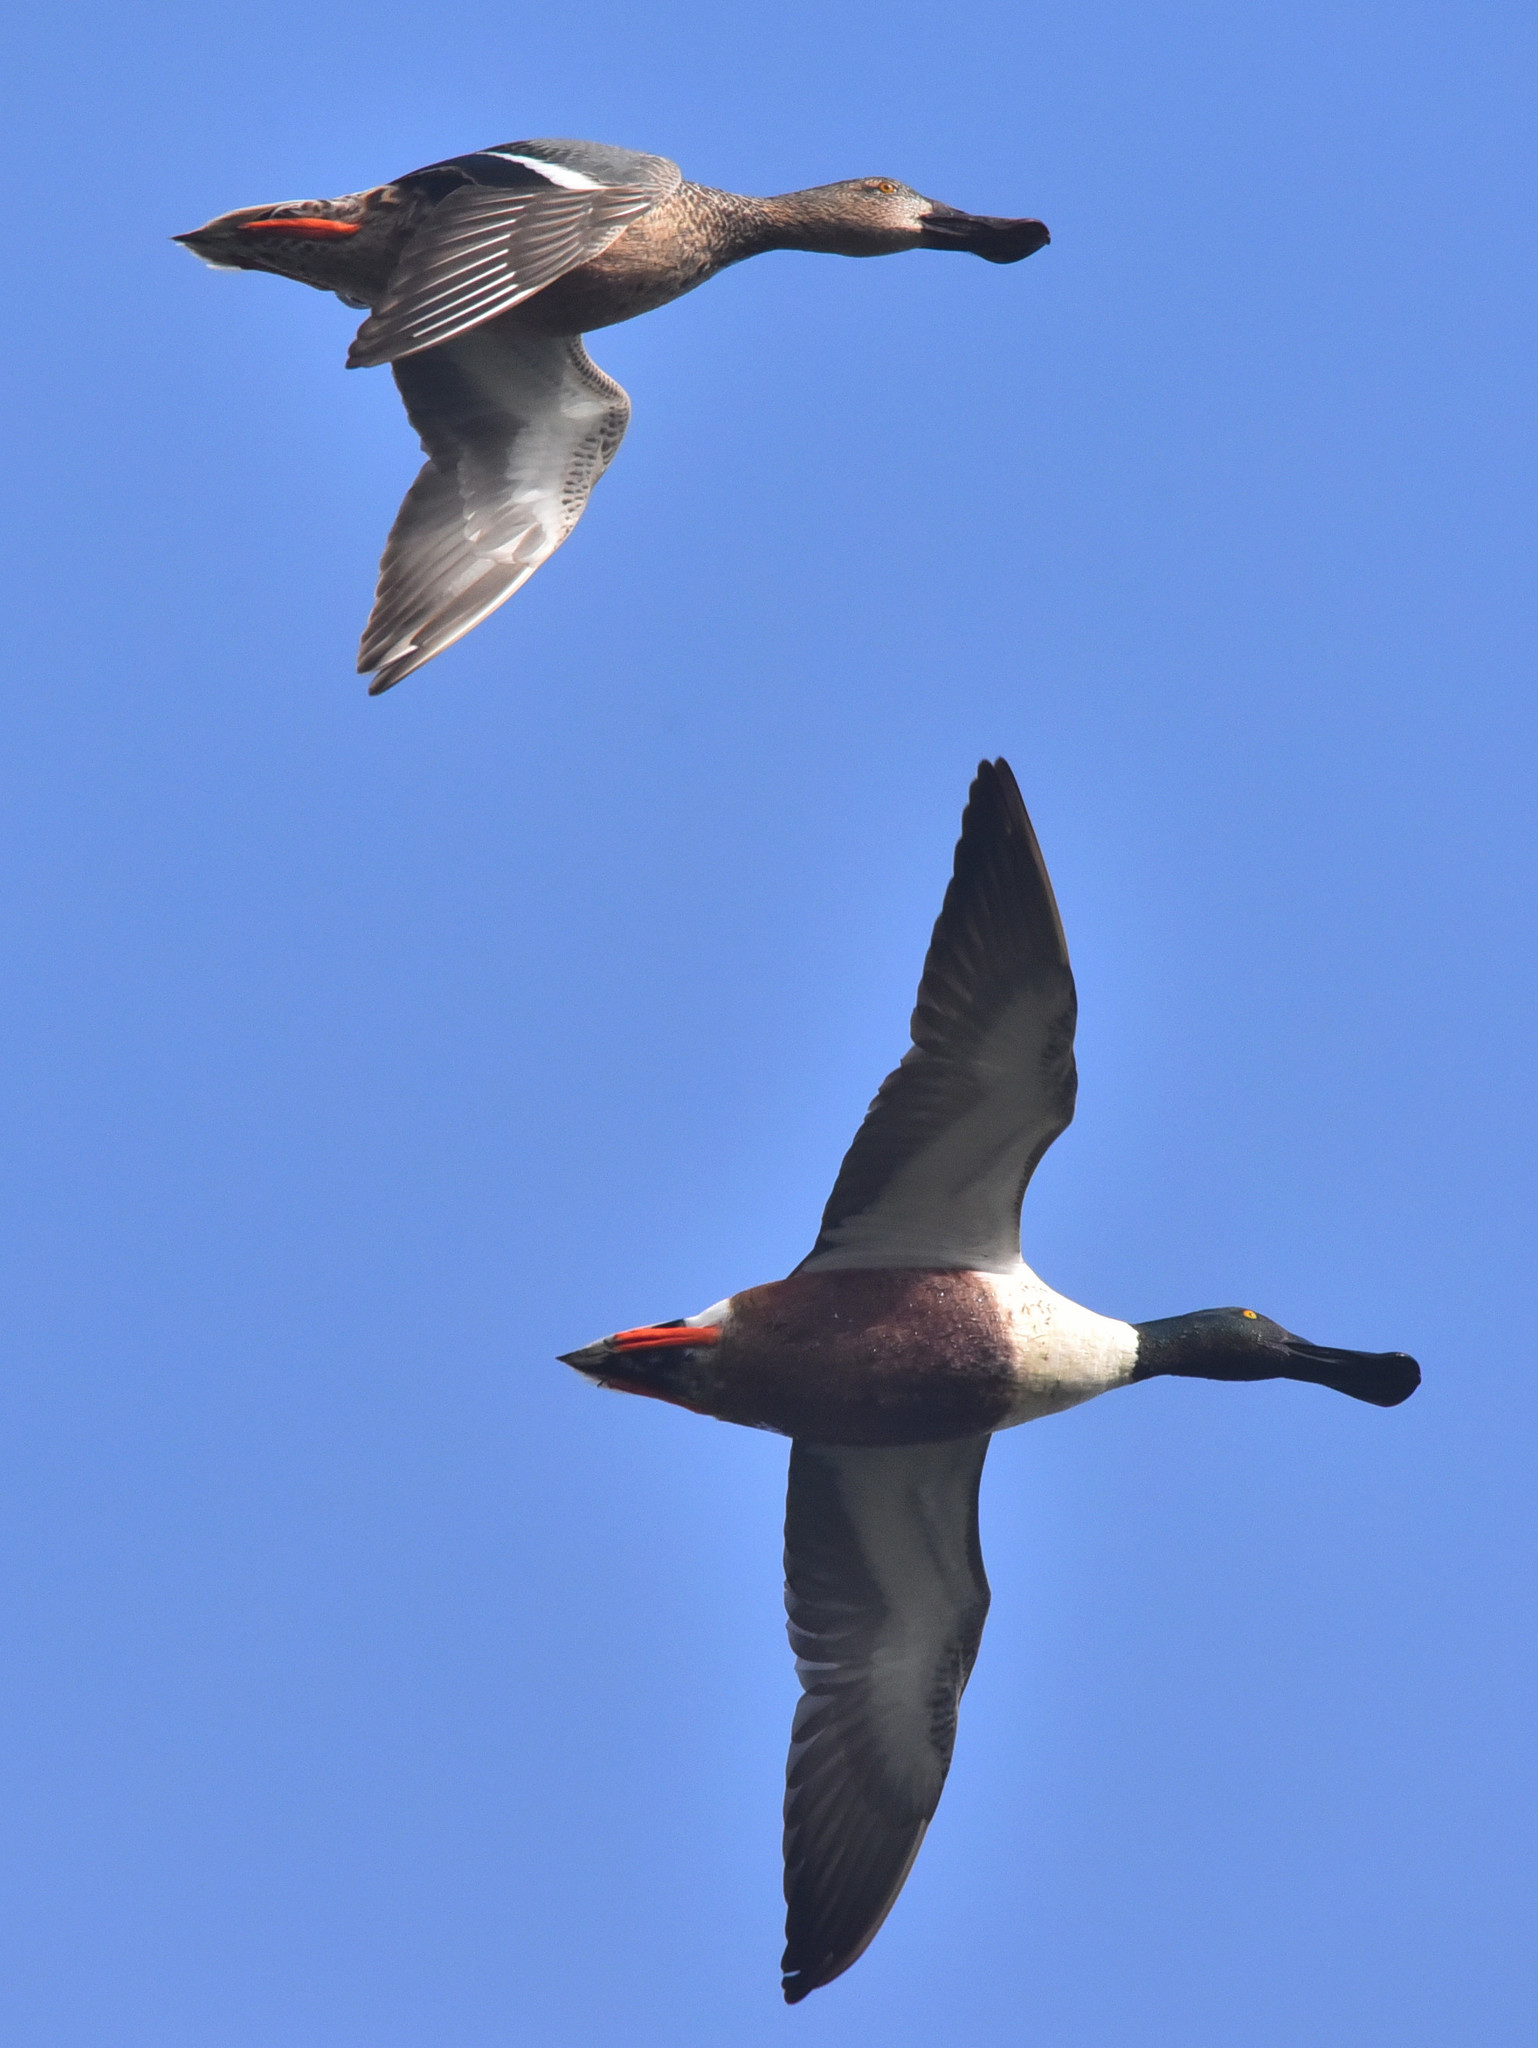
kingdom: Animalia
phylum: Chordata
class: Aves
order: Anseriformes
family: Anatidae
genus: Spatula
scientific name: Spatula clypeata
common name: Northern shoveler
